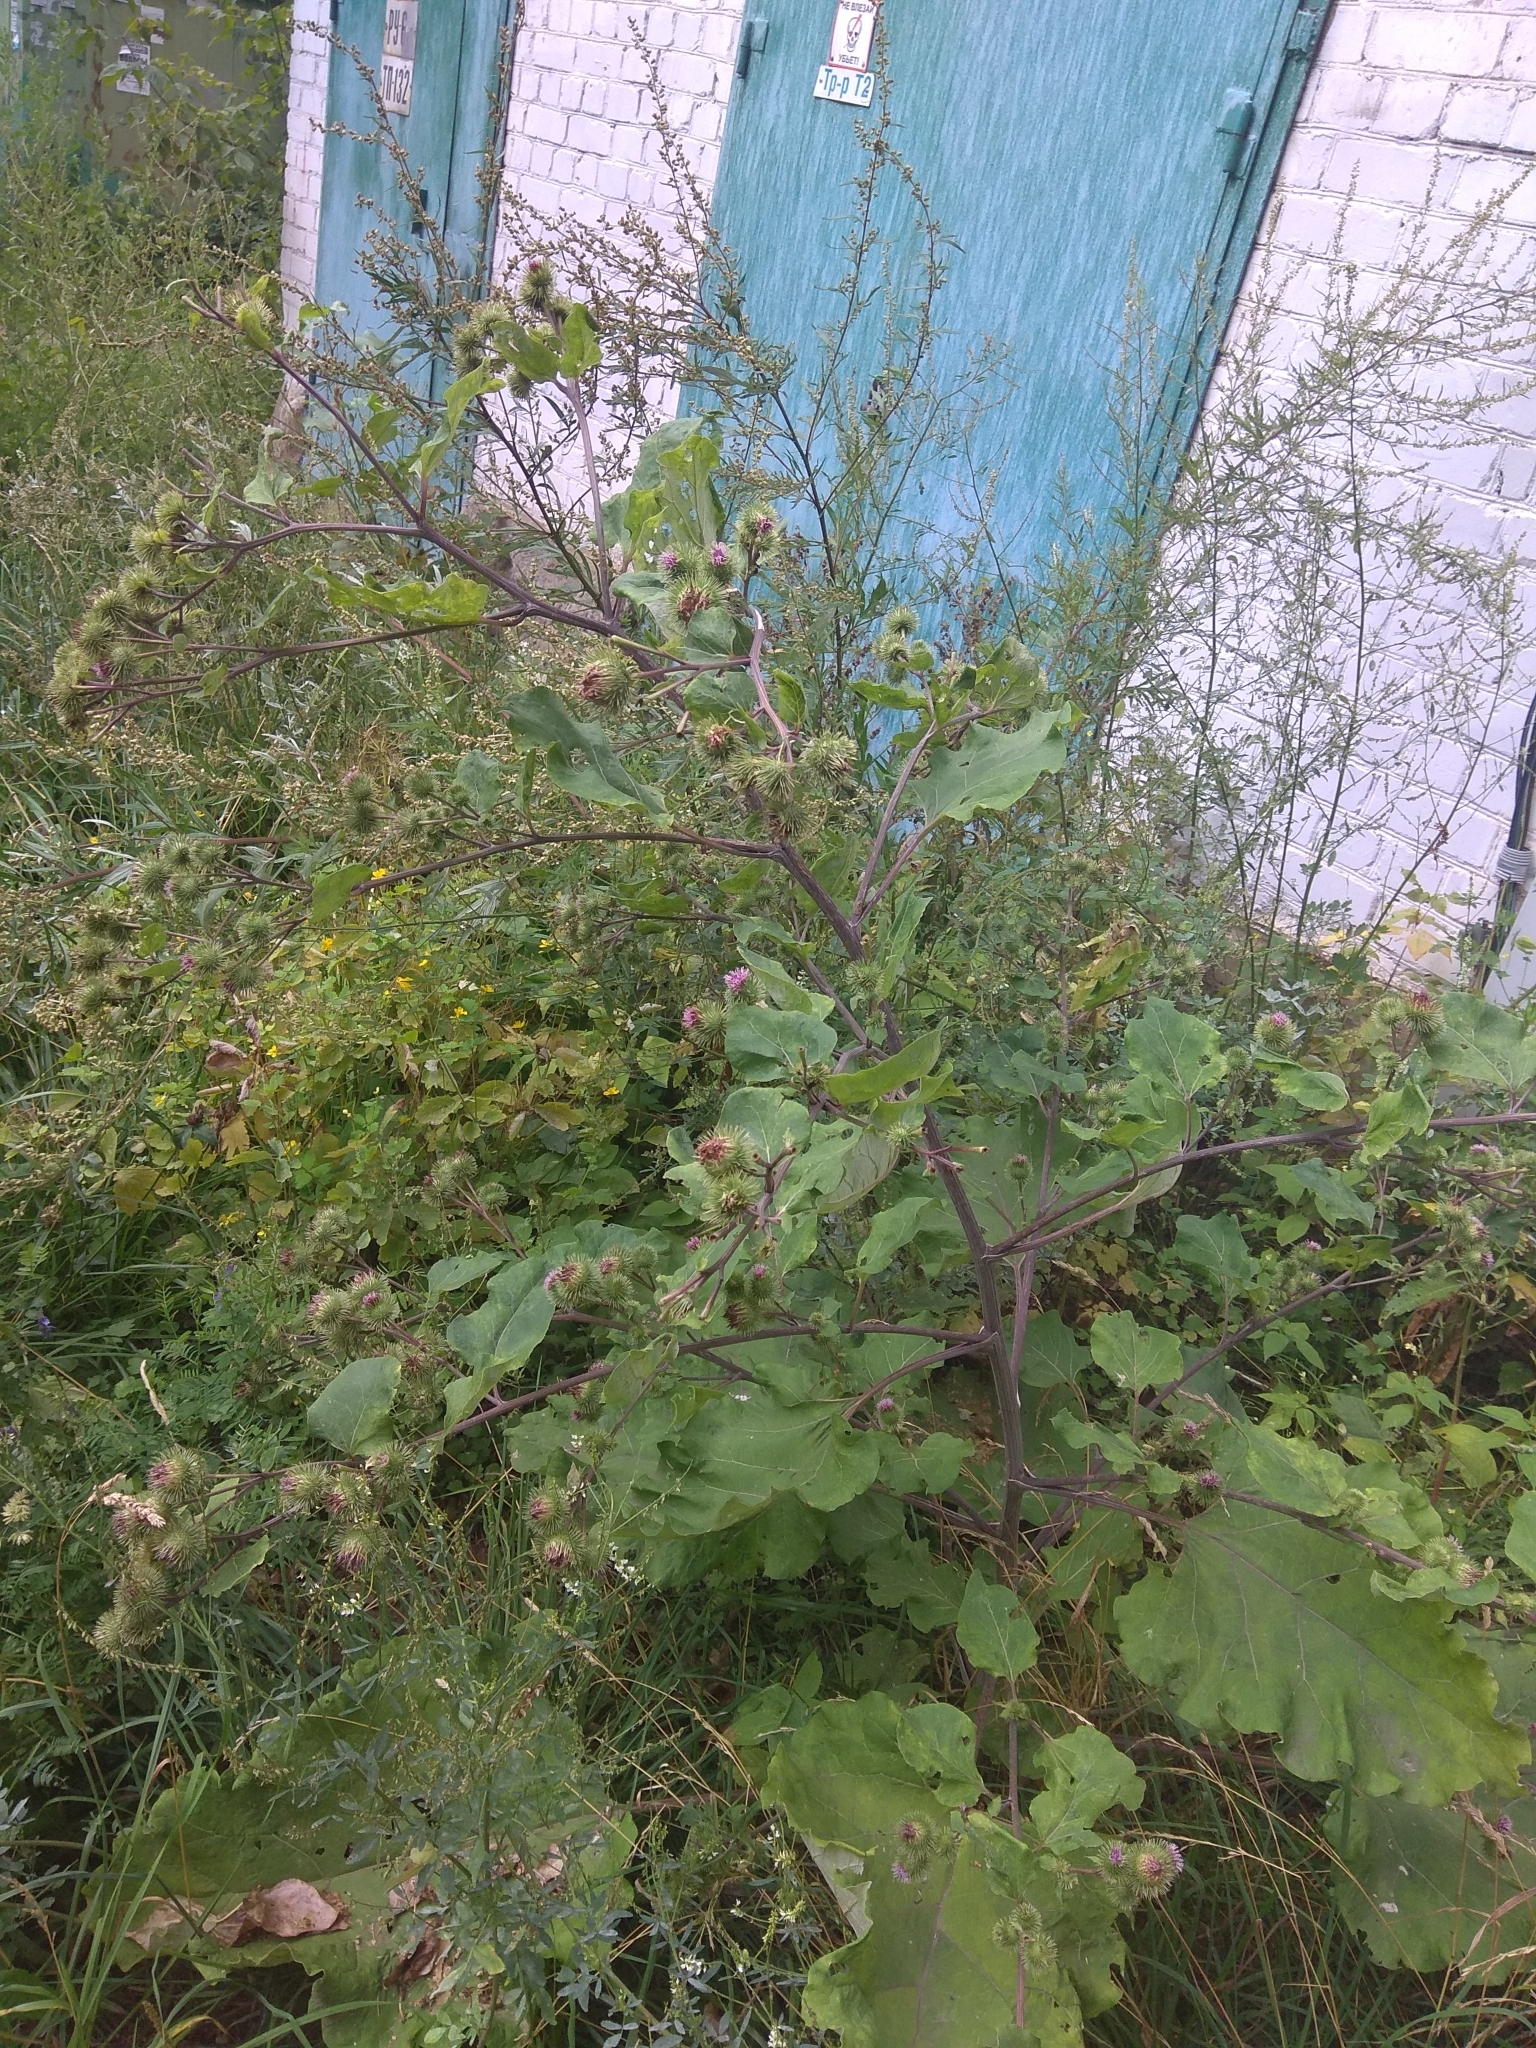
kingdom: Plantae
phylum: Tracheophyta
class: Magnoliopsida
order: Asterales
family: Asteraceae
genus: Arctium
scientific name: Arctium lappa
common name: Greater burdock
